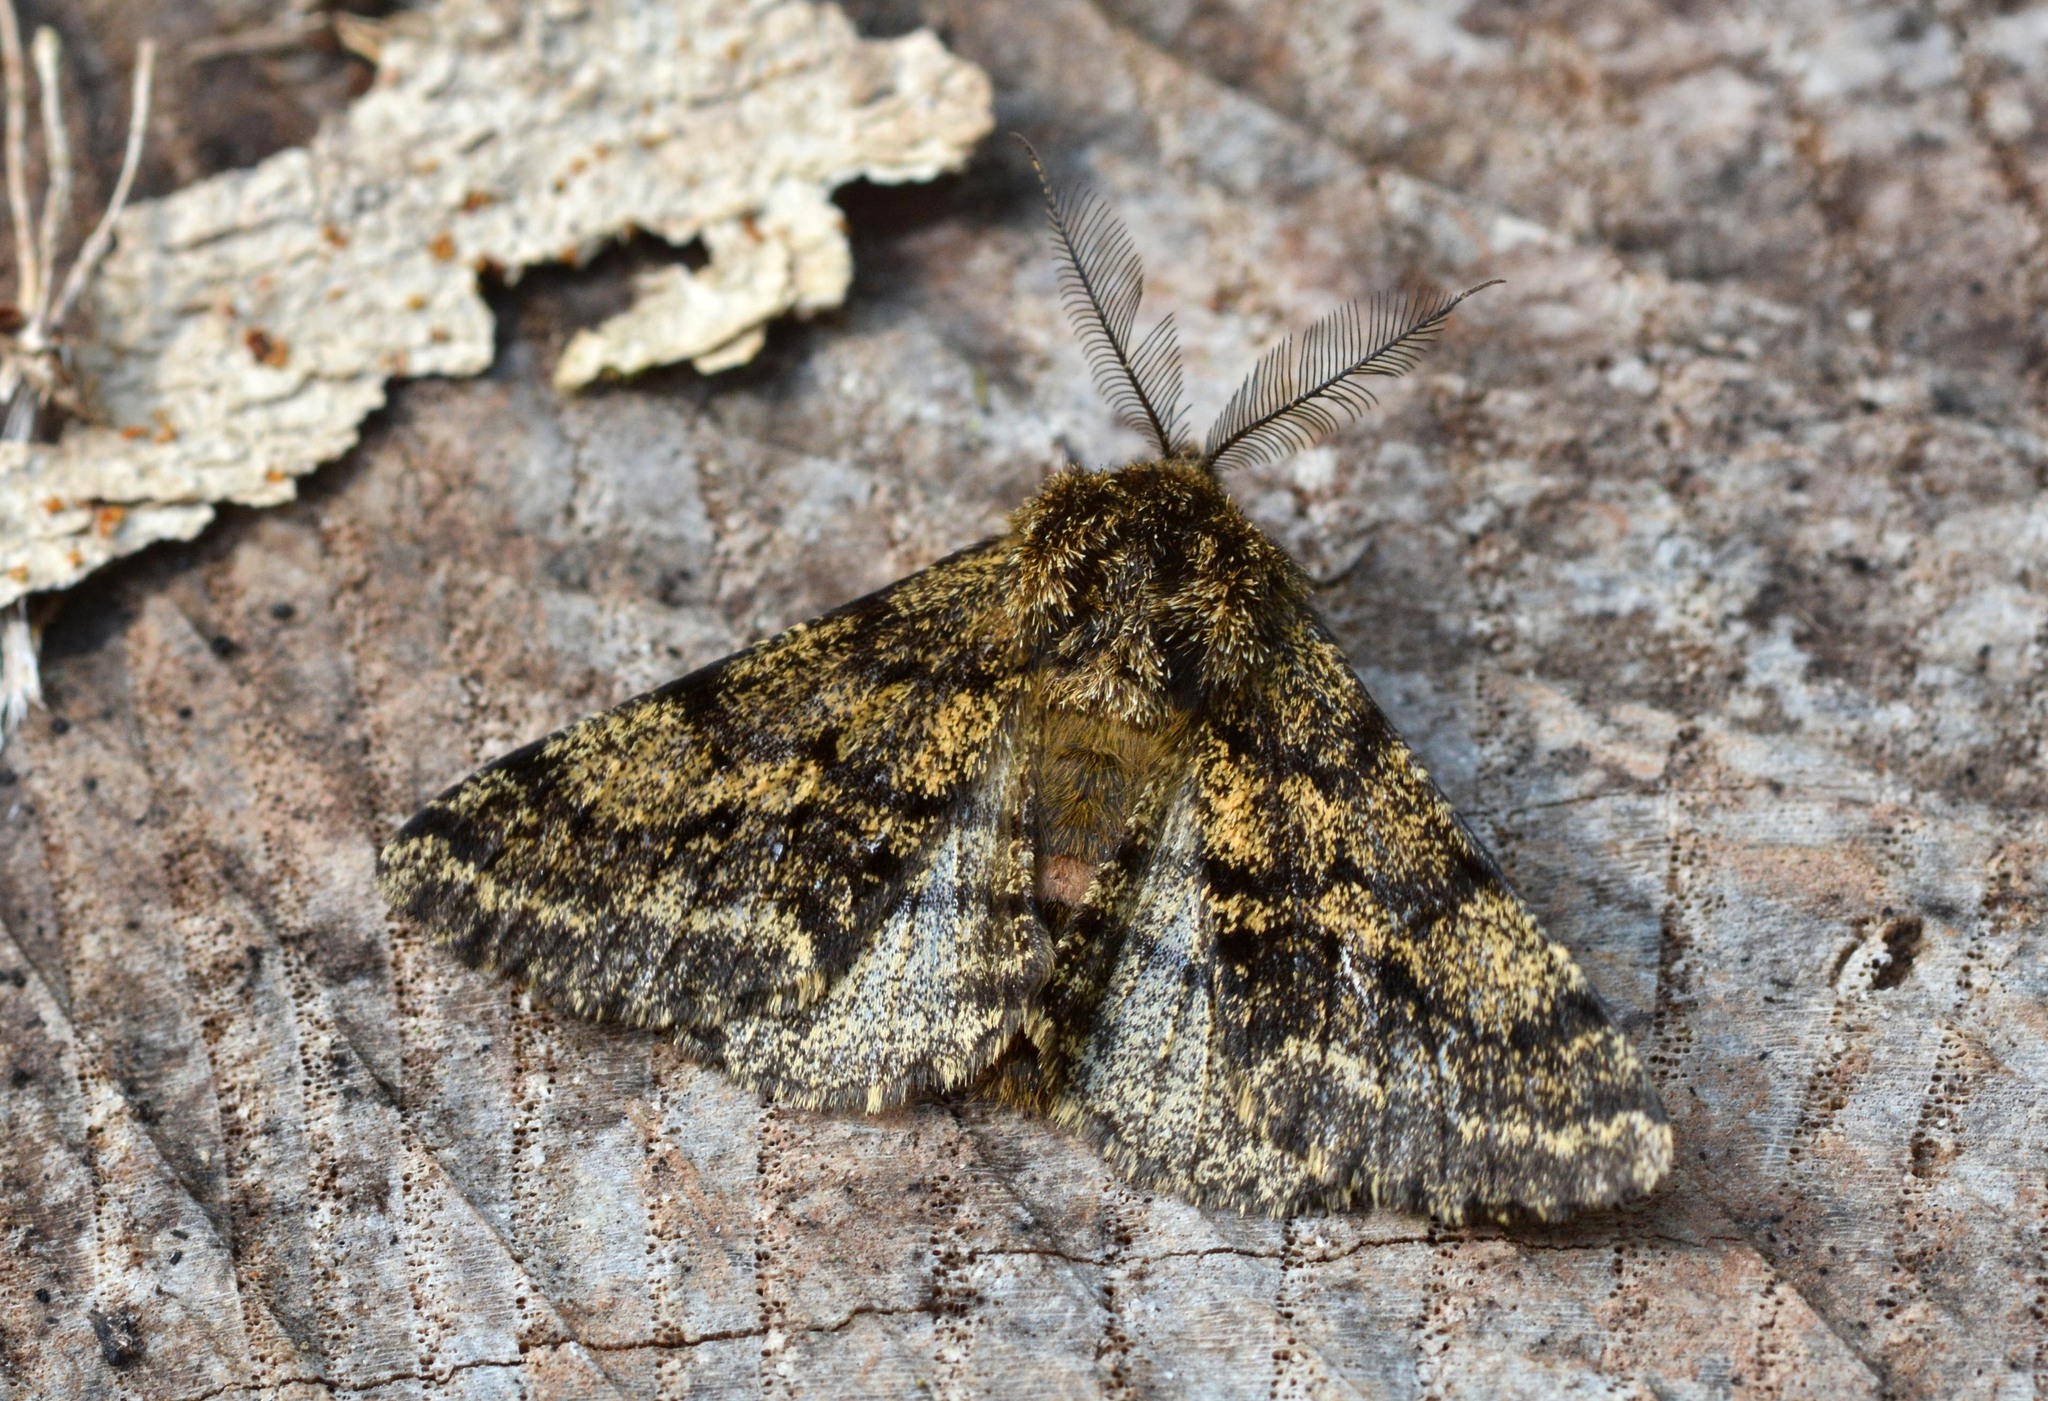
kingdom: Animalia
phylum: Arthropoda
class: Insecta
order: Lepidoptera
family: Geometridae
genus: Lycia
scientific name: Lycia hirtaria
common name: Brindled beauty
